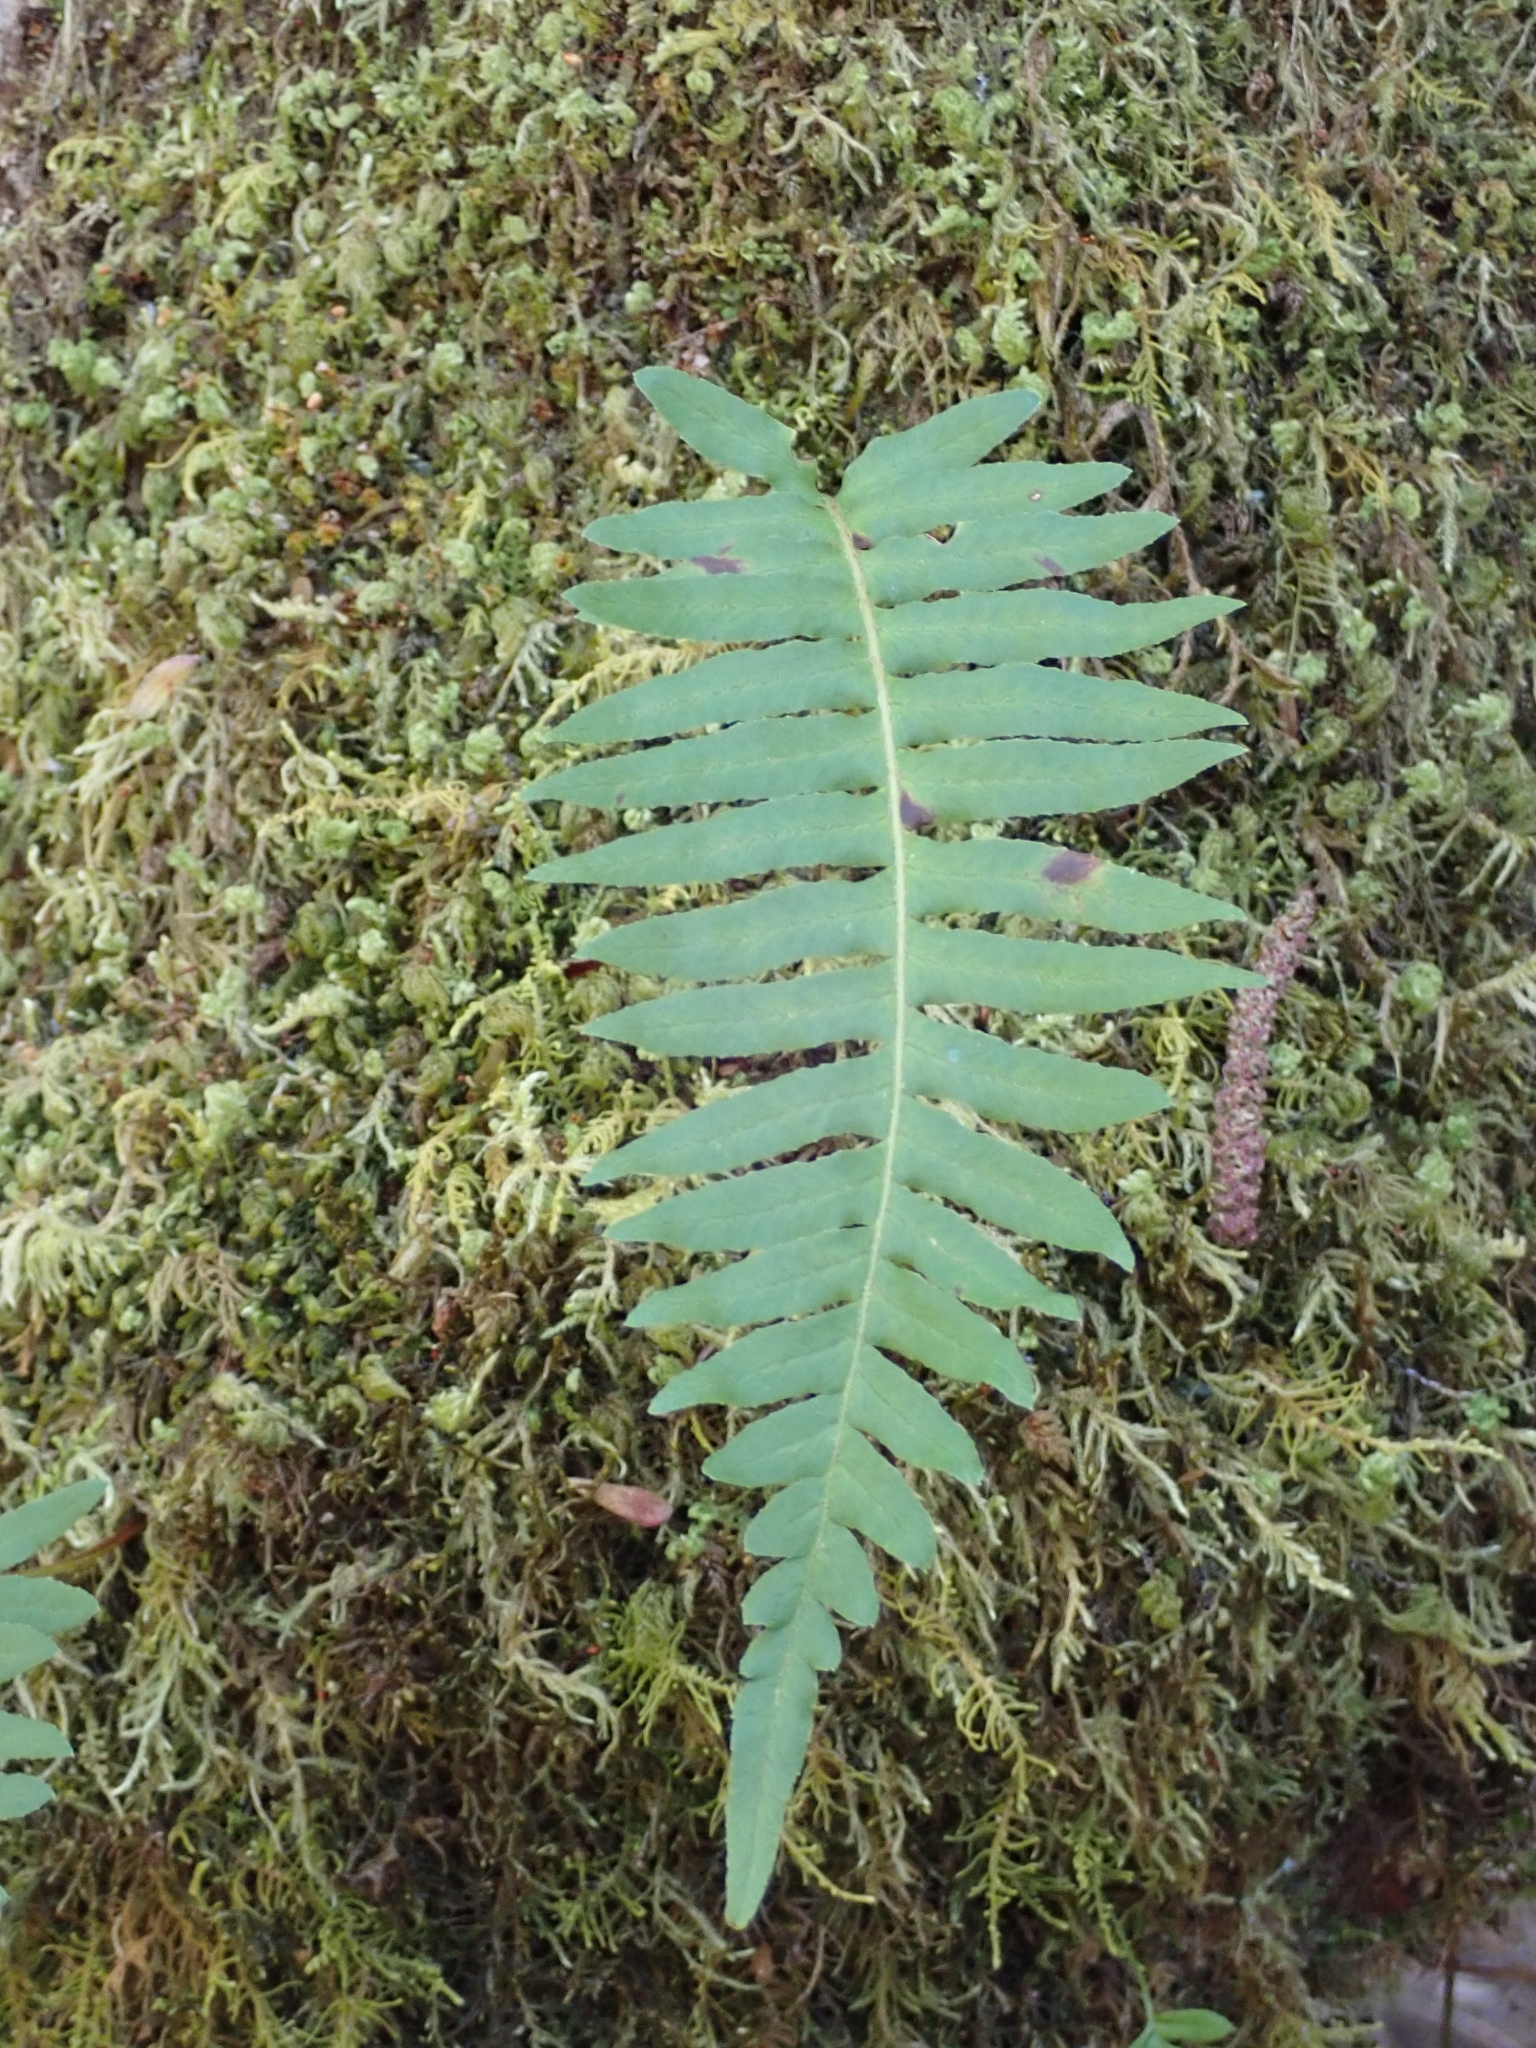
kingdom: Plantae
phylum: Tracheophyta
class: Polypodiopsida
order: Polypodiales
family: Polypodiaceae
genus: Polypodium
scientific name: Polypodium glycyrrhiza
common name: Licorice fern
